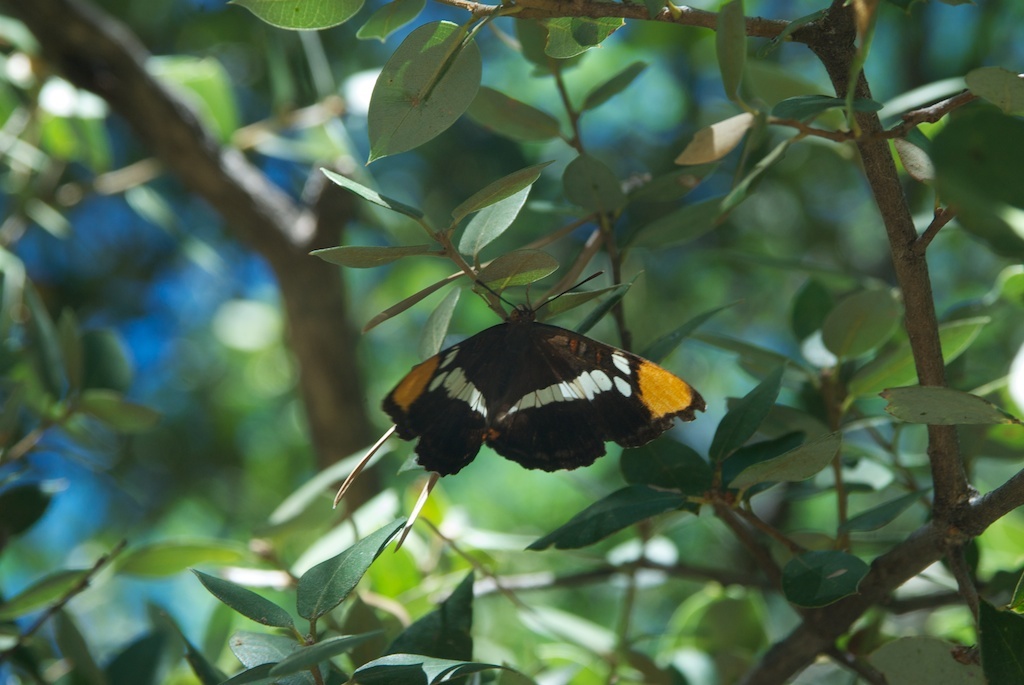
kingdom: Animalia
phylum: Arthropoda
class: Insecta
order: Lepidoptera
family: Nymphalidae
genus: Limenitis
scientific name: Limenitis bredowii
